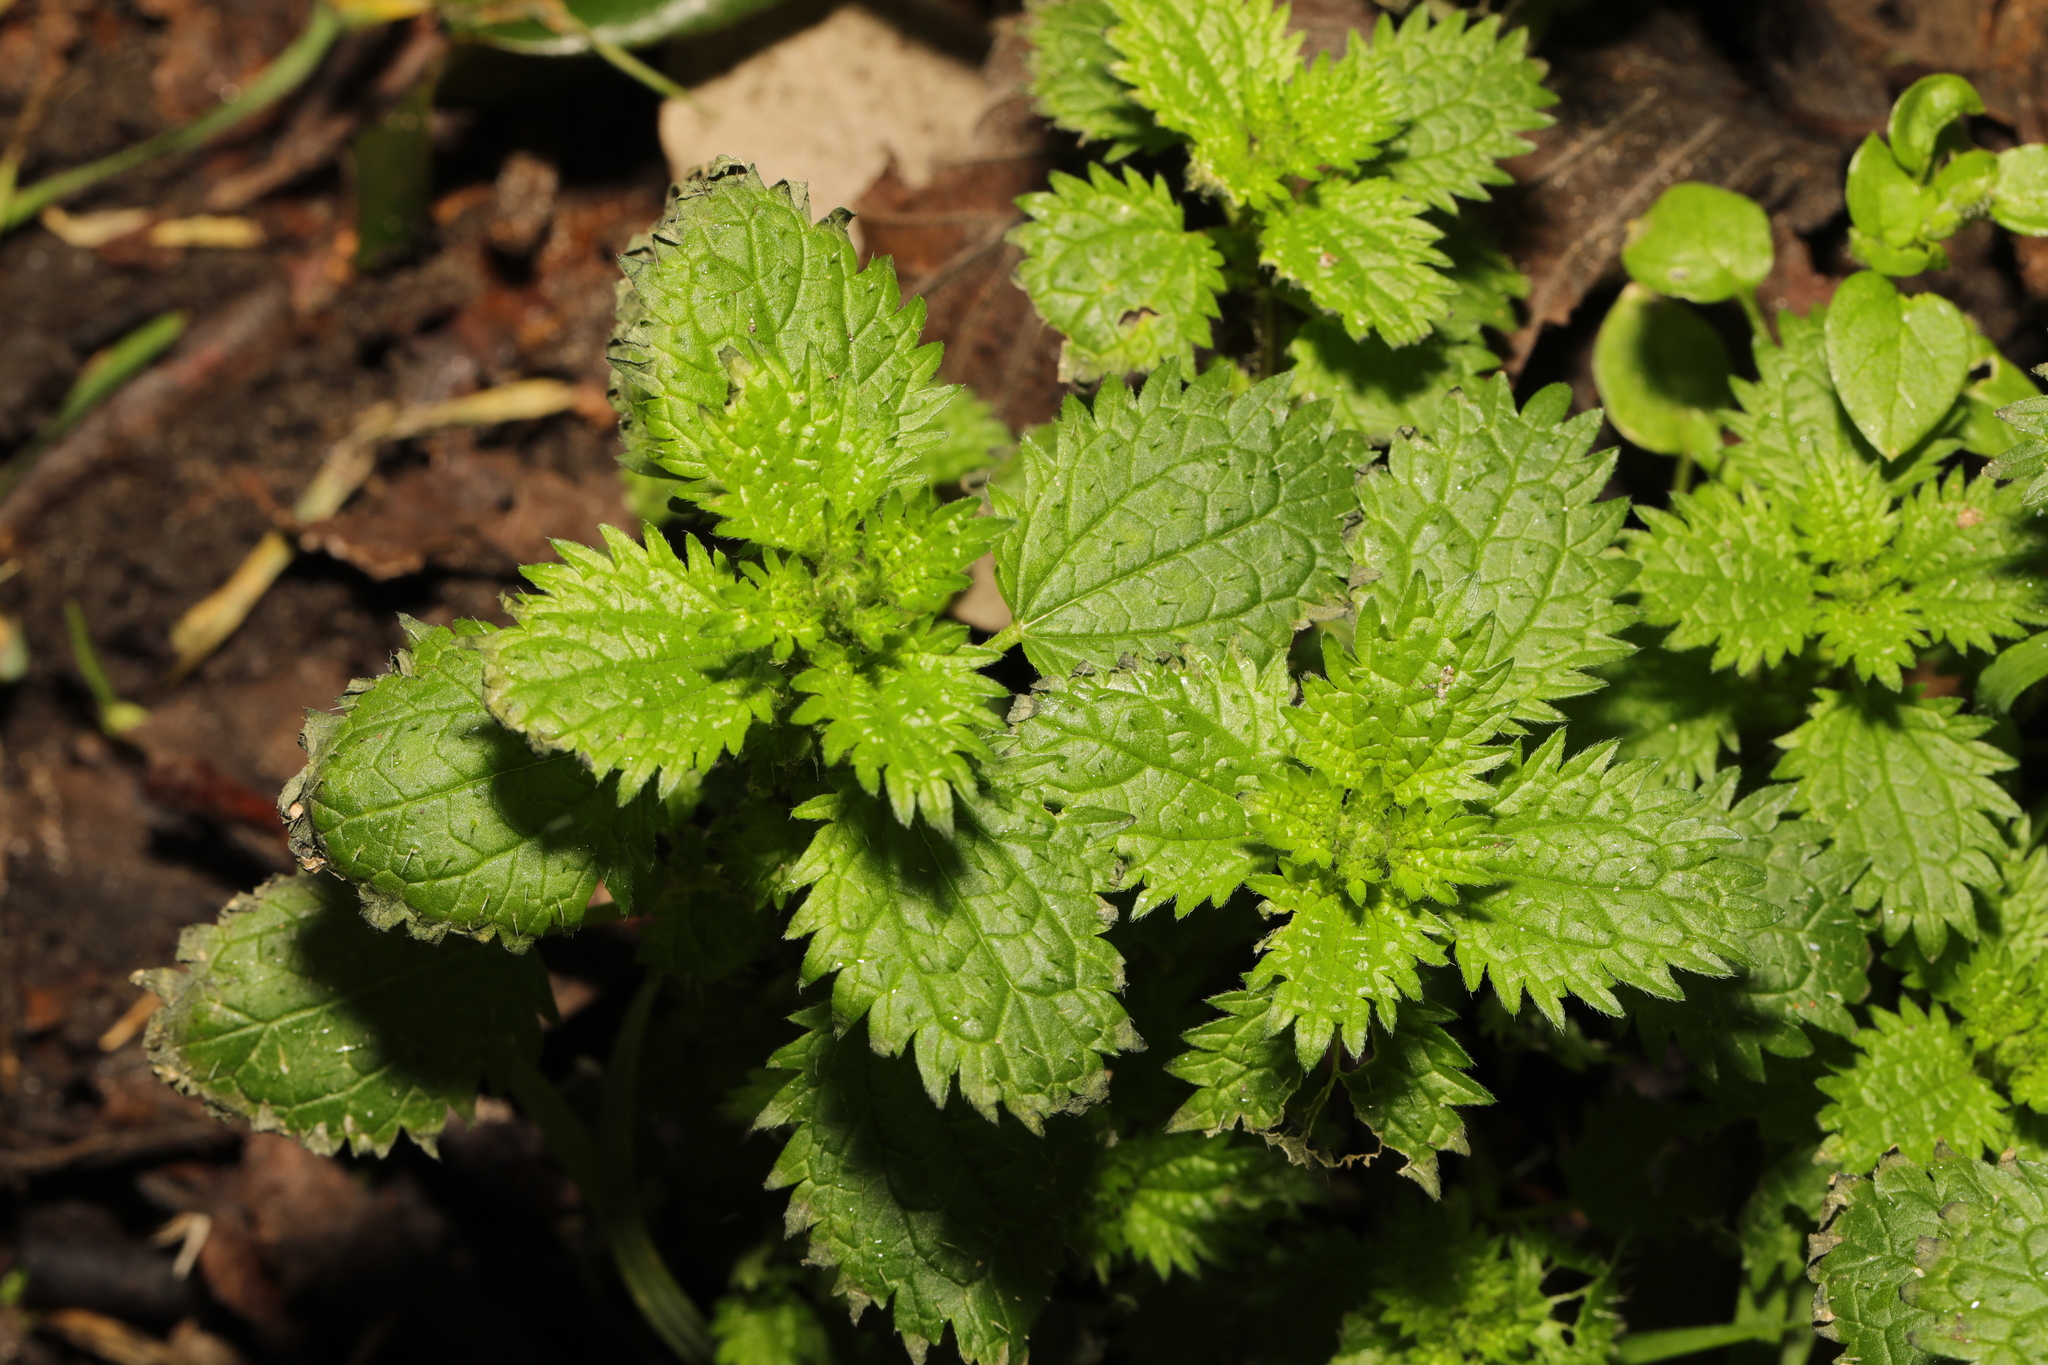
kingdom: Plantae
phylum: Tracheophyta
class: Magnoliopsida
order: Rosales
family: Urticaceae
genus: Urtica
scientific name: Urtica dioica
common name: Common nettle
